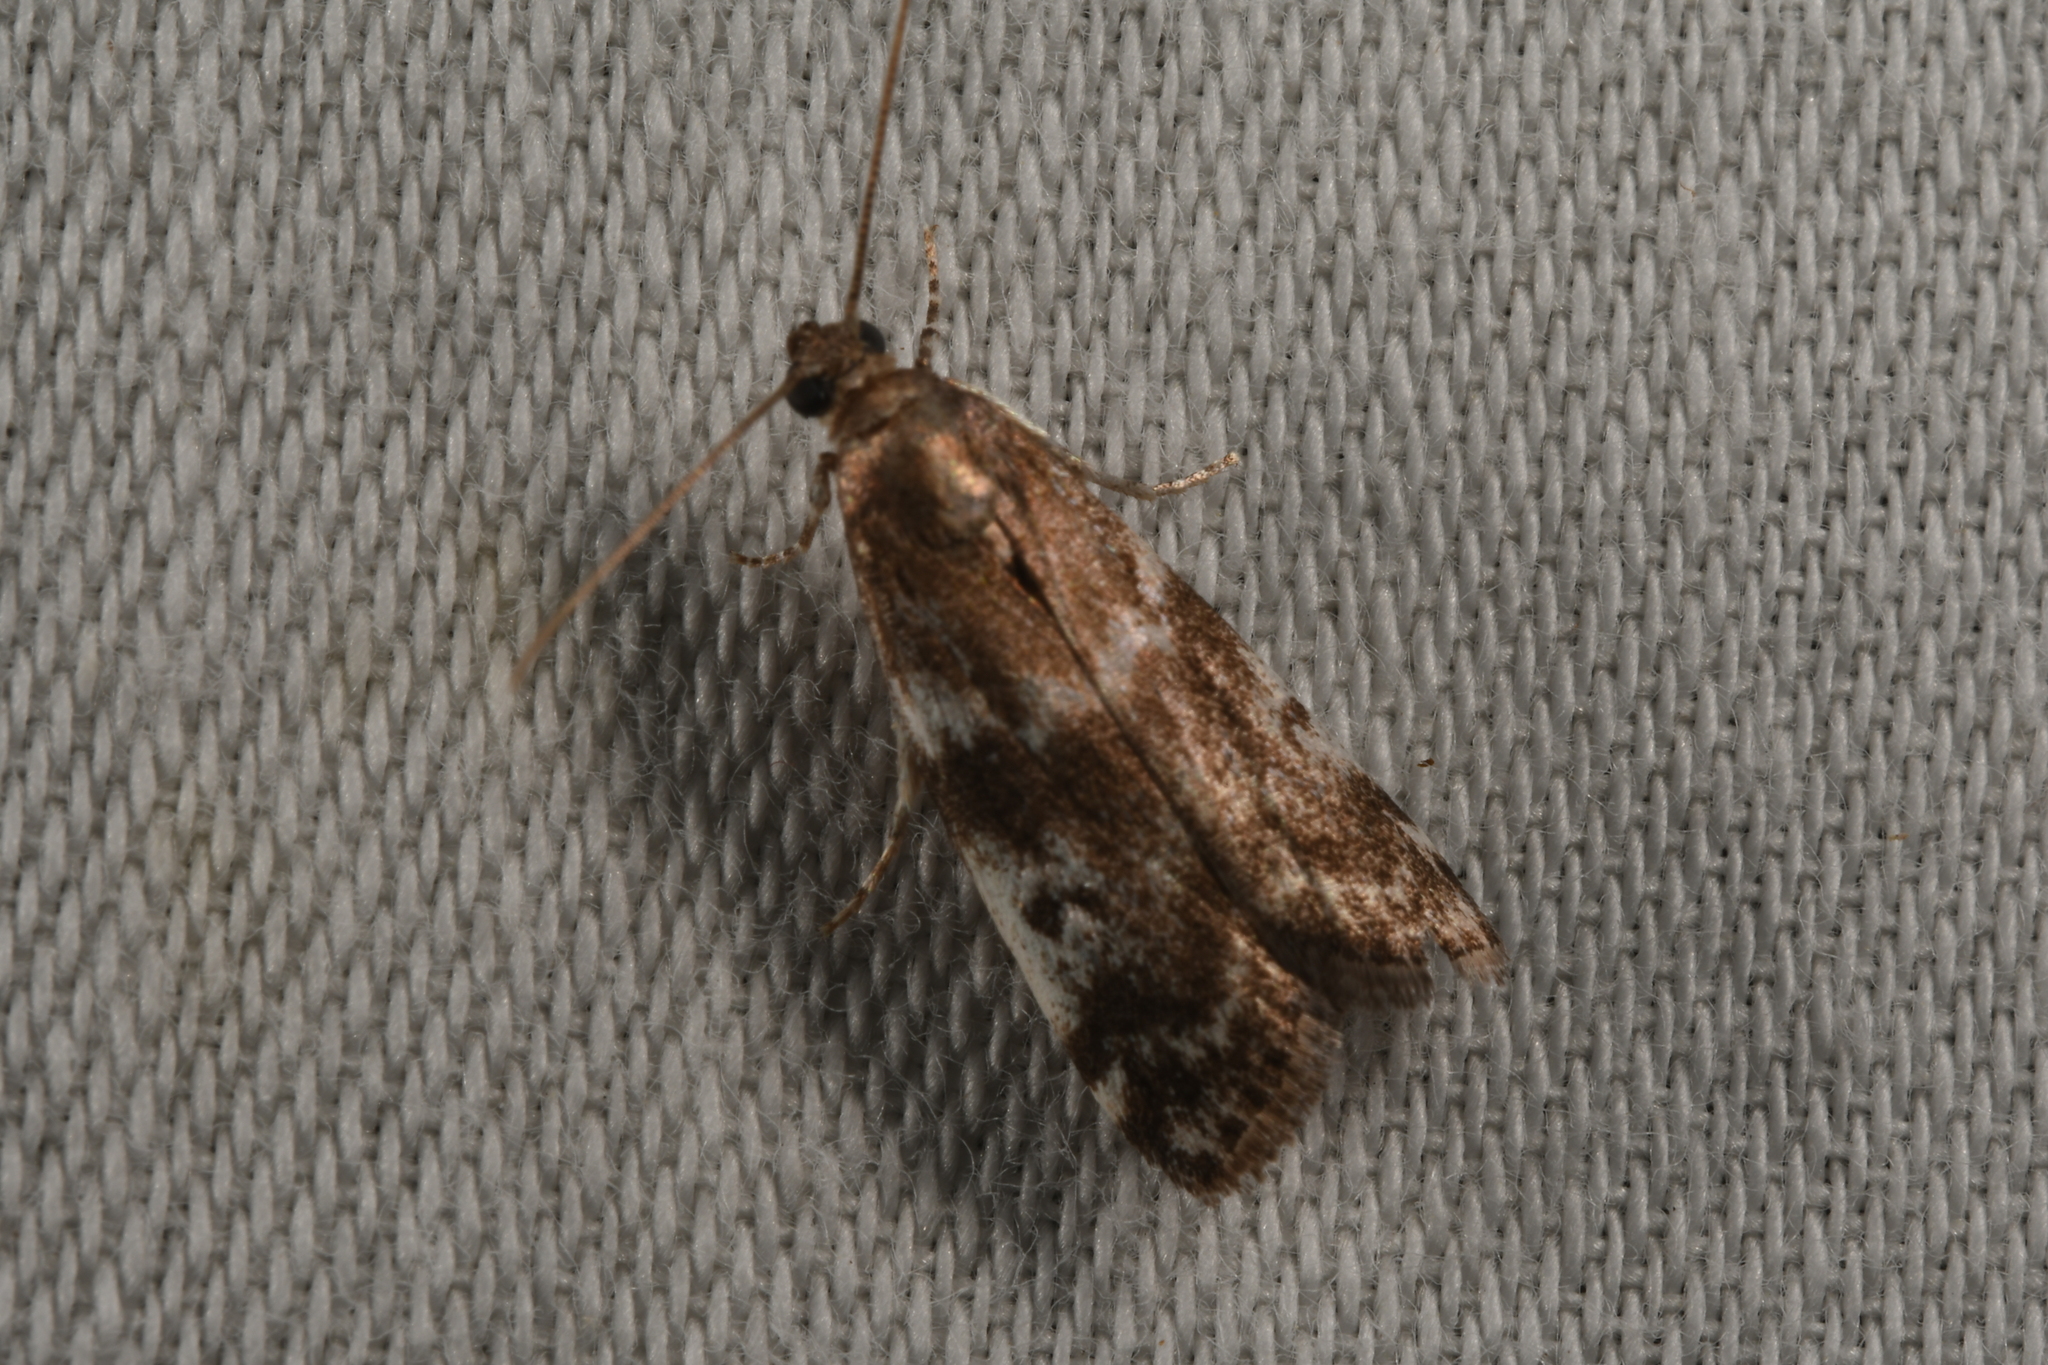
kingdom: Animalia
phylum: Arthropoda
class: Insecta
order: Lepidoptera
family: Pyralidae
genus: Assara
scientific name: Assara terebrella
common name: Dark spruce knot-horn
